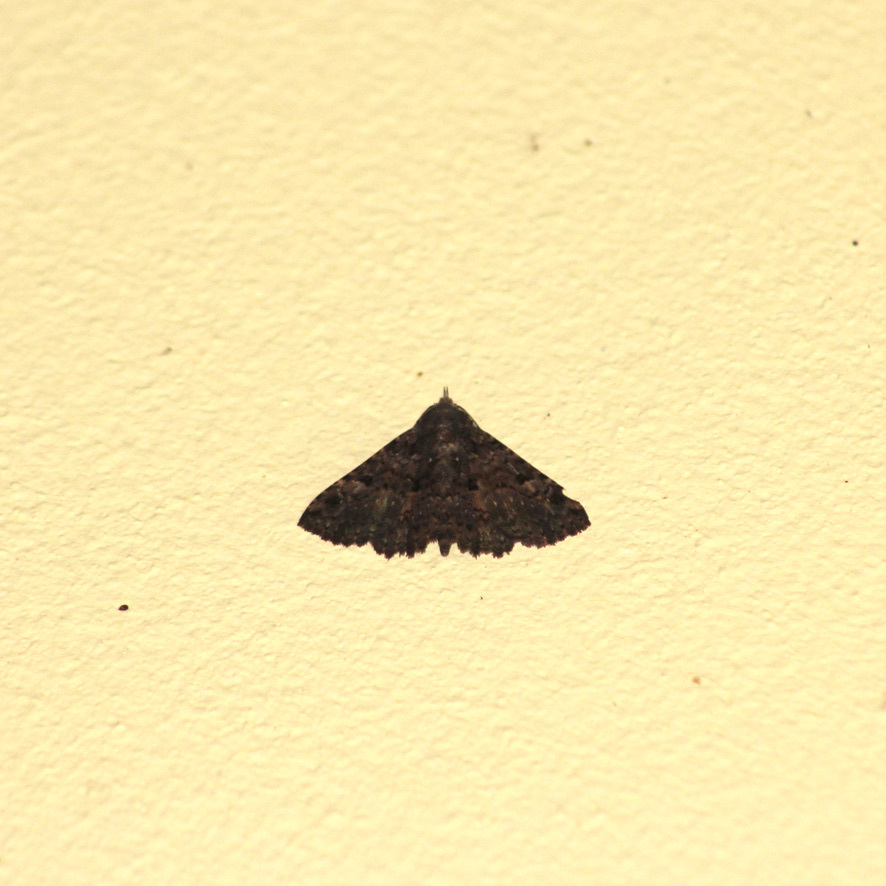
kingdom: Animalia
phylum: Arthropoda
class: Insecta
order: Lepidoptera
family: Erebidae
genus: Metalectra
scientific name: Metalectra praecisalis
